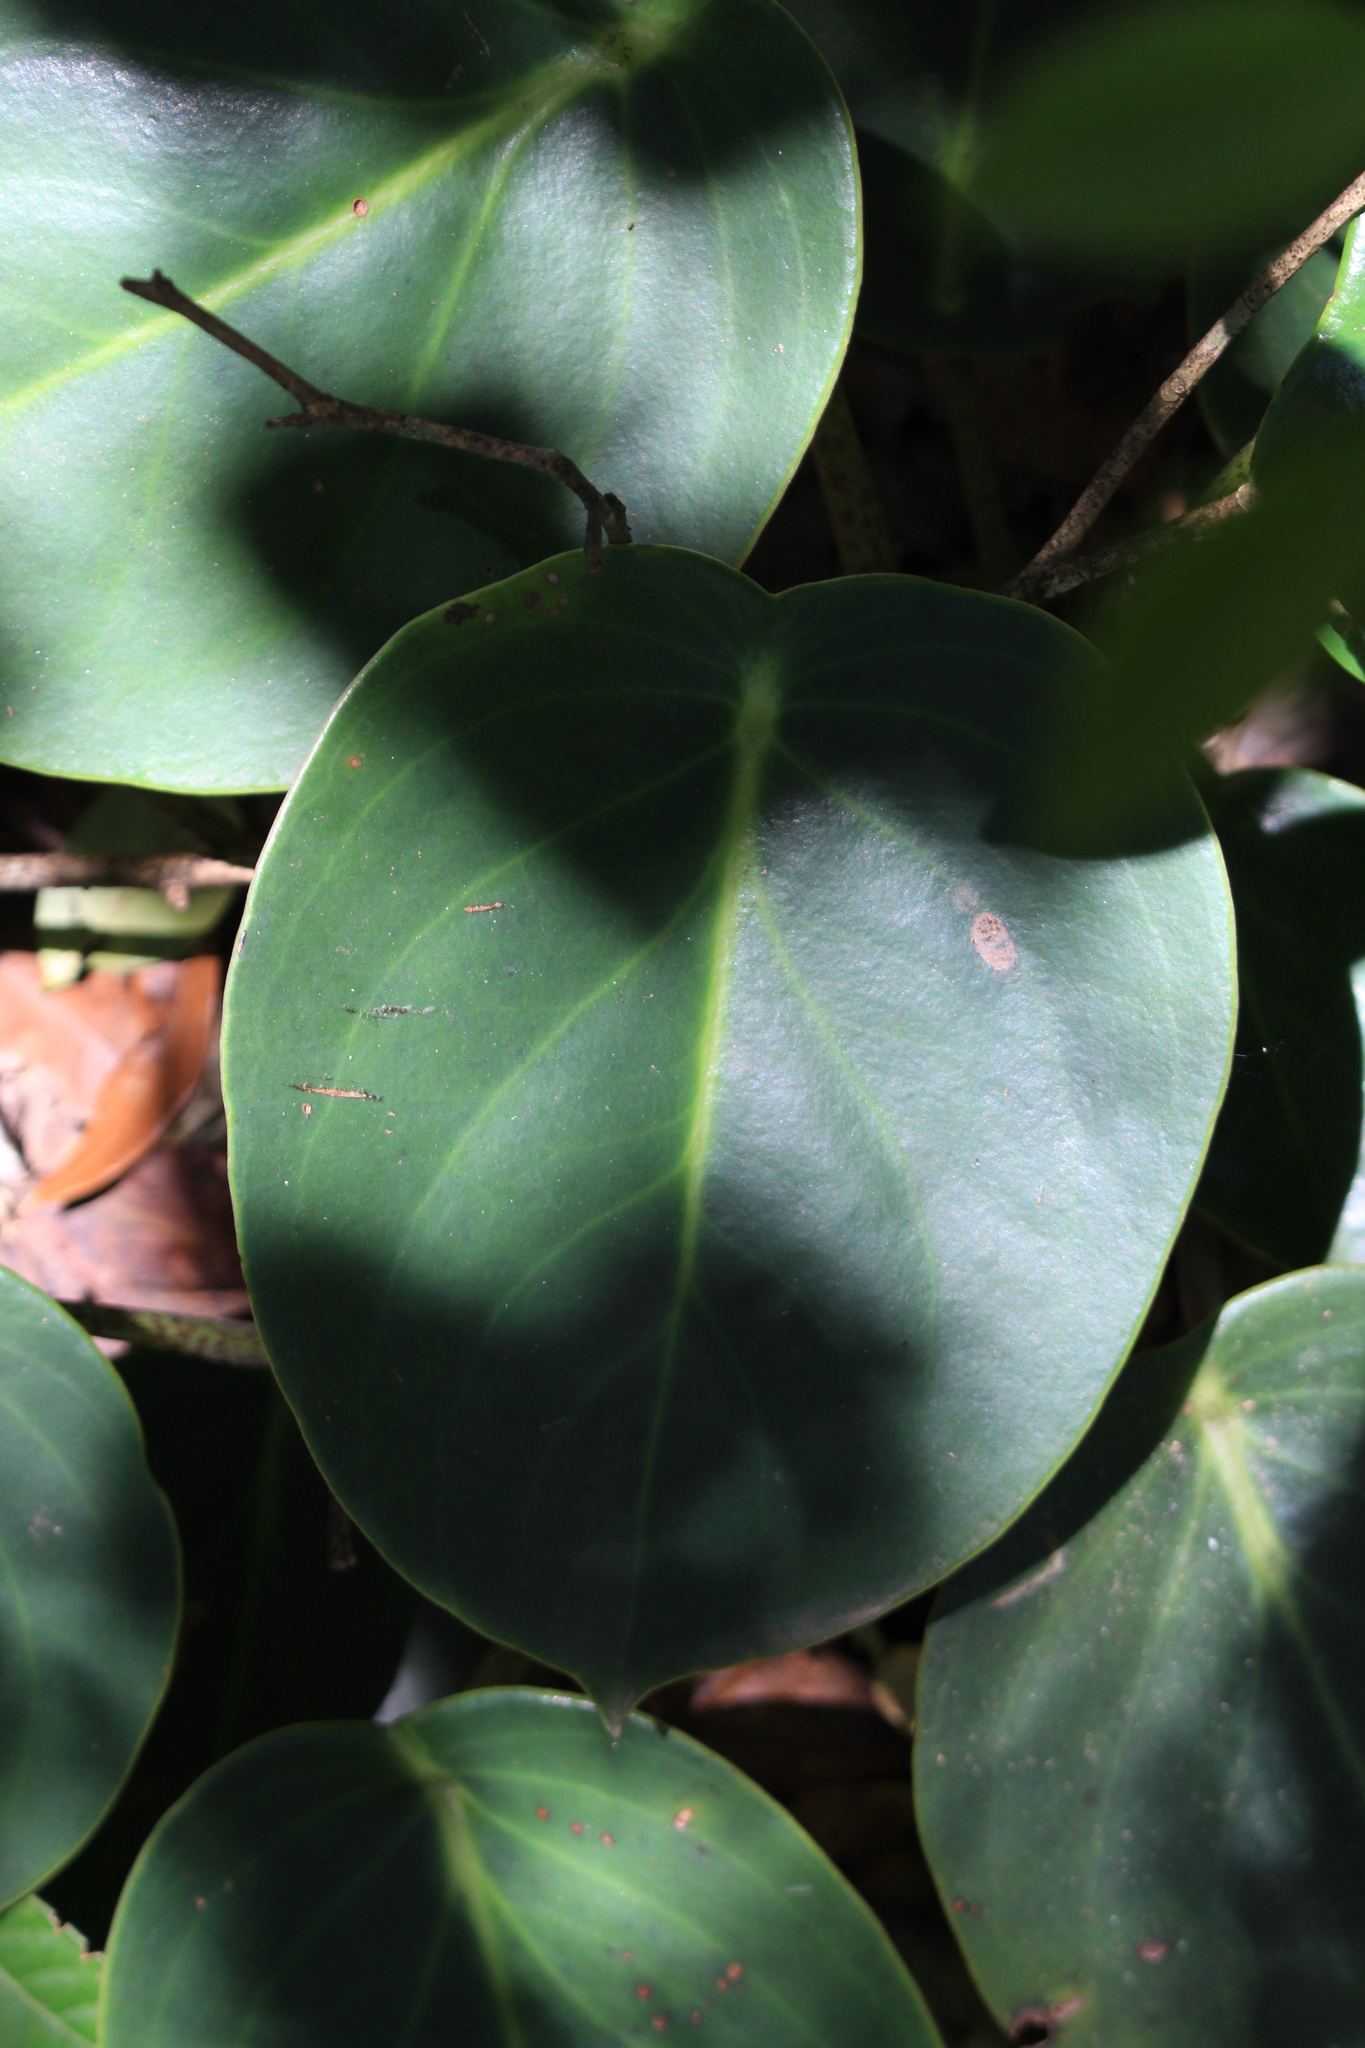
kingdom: Plantae
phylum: Tracheophyta
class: Magnoliopsida
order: Piperales
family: Piperaceae
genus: Peperomia
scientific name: Peperomia maculosa
